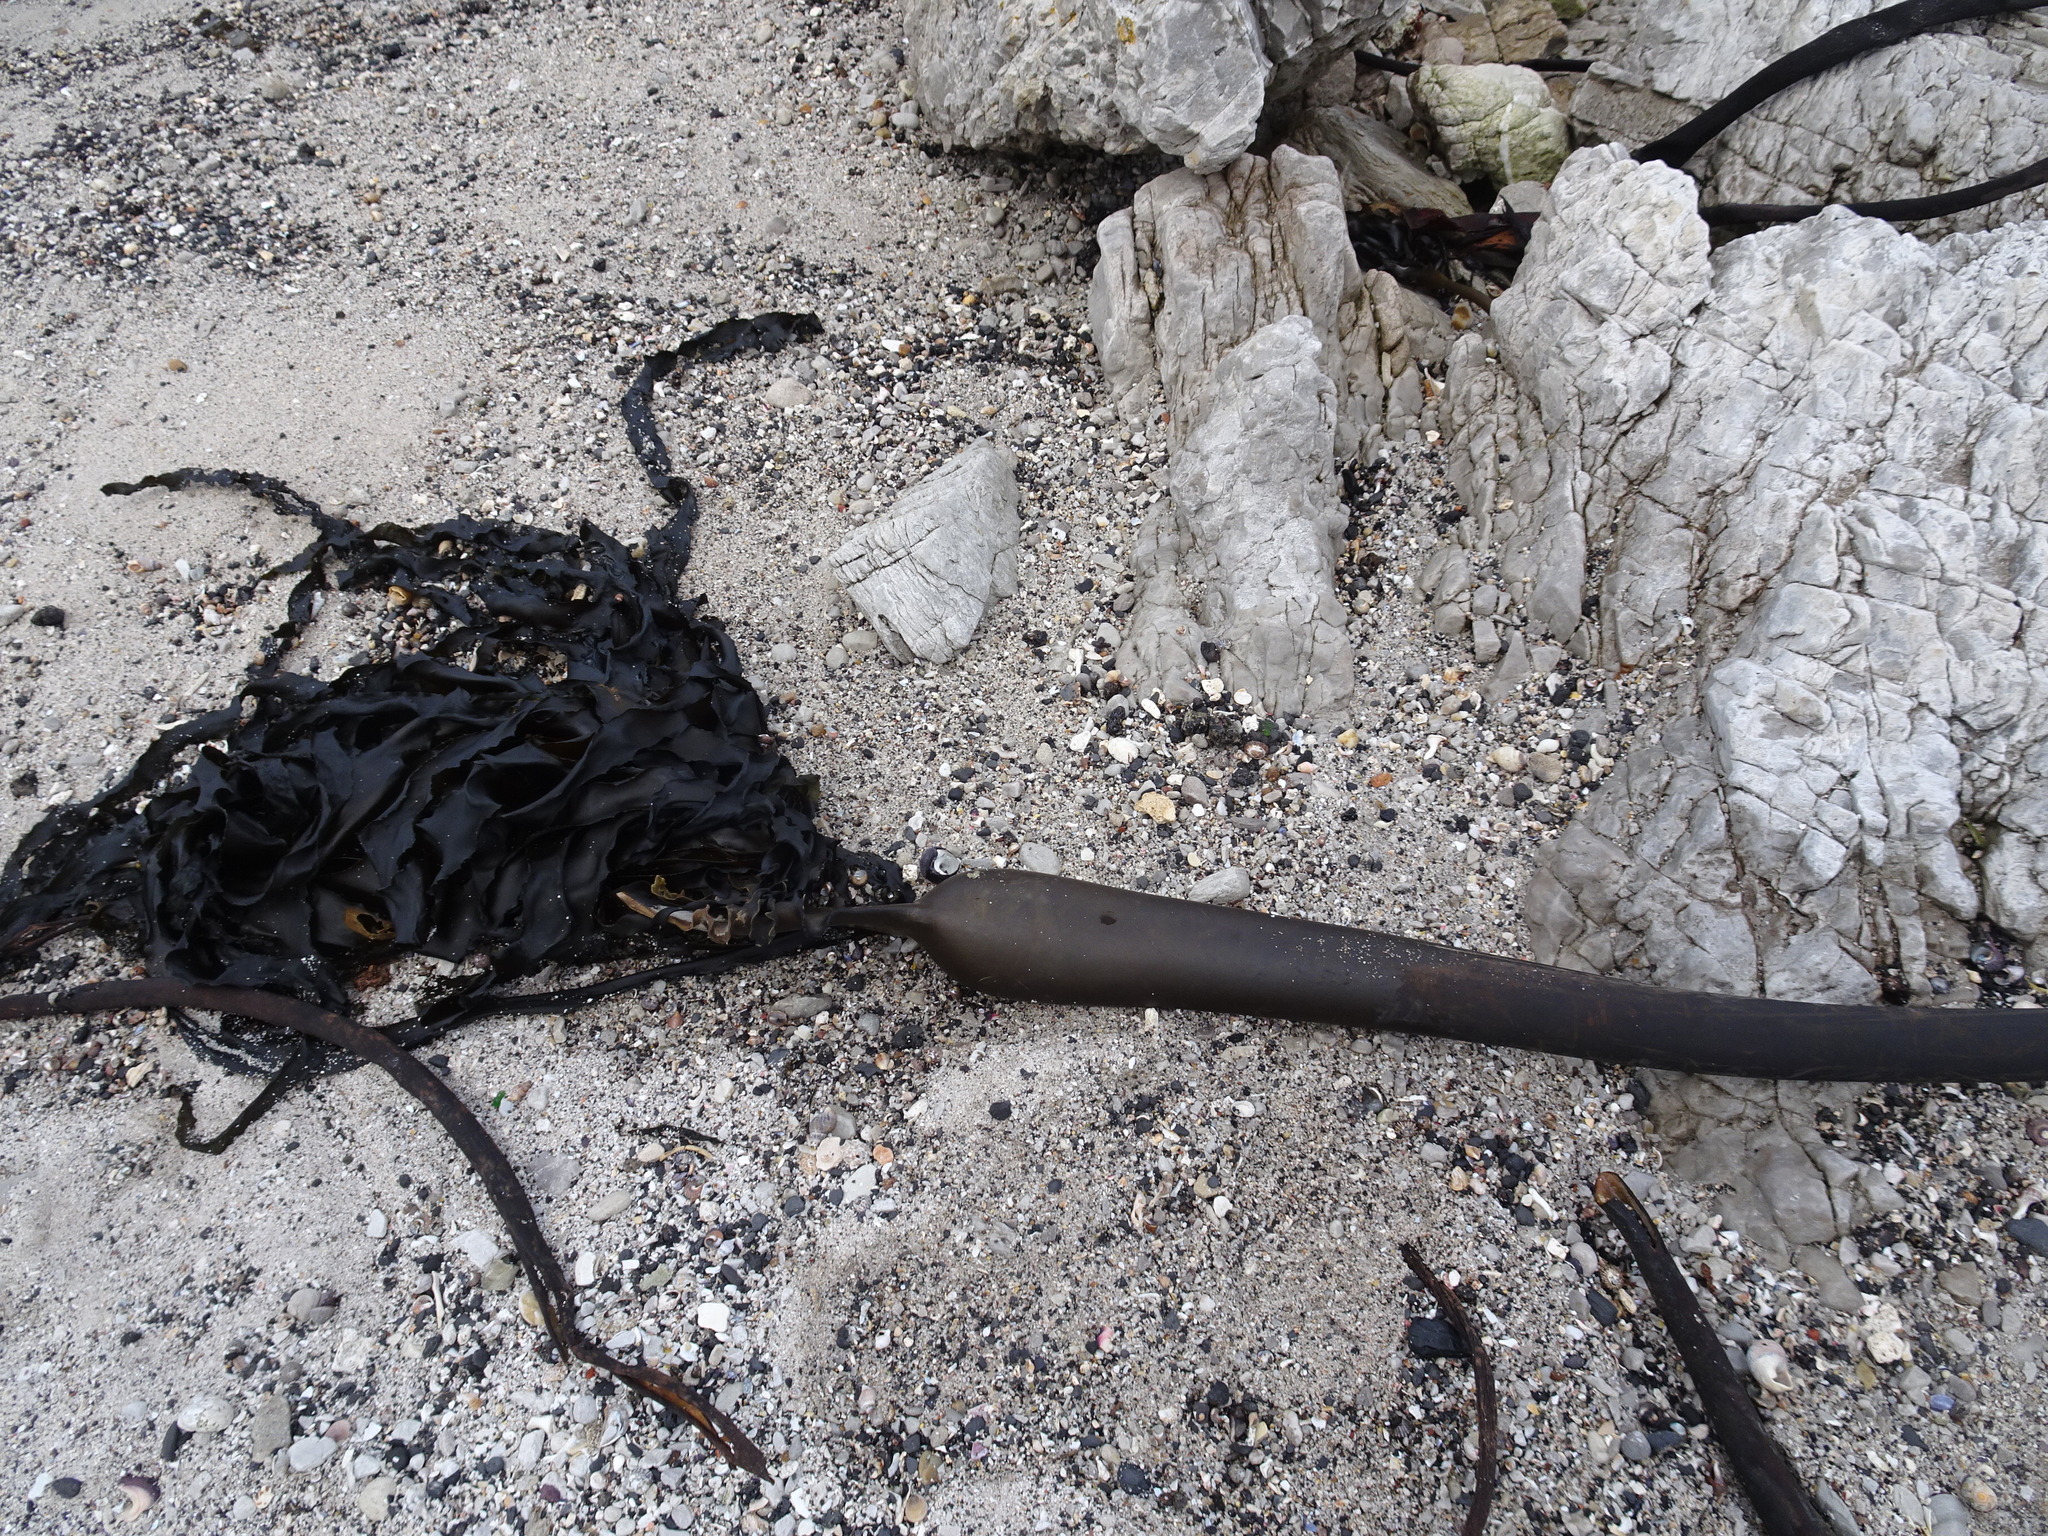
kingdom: Chromista
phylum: Ochrophyta
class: Phaeophyceae
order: Laminariales
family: Lessoniaceae
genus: Ecklonia
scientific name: Ecklonia
